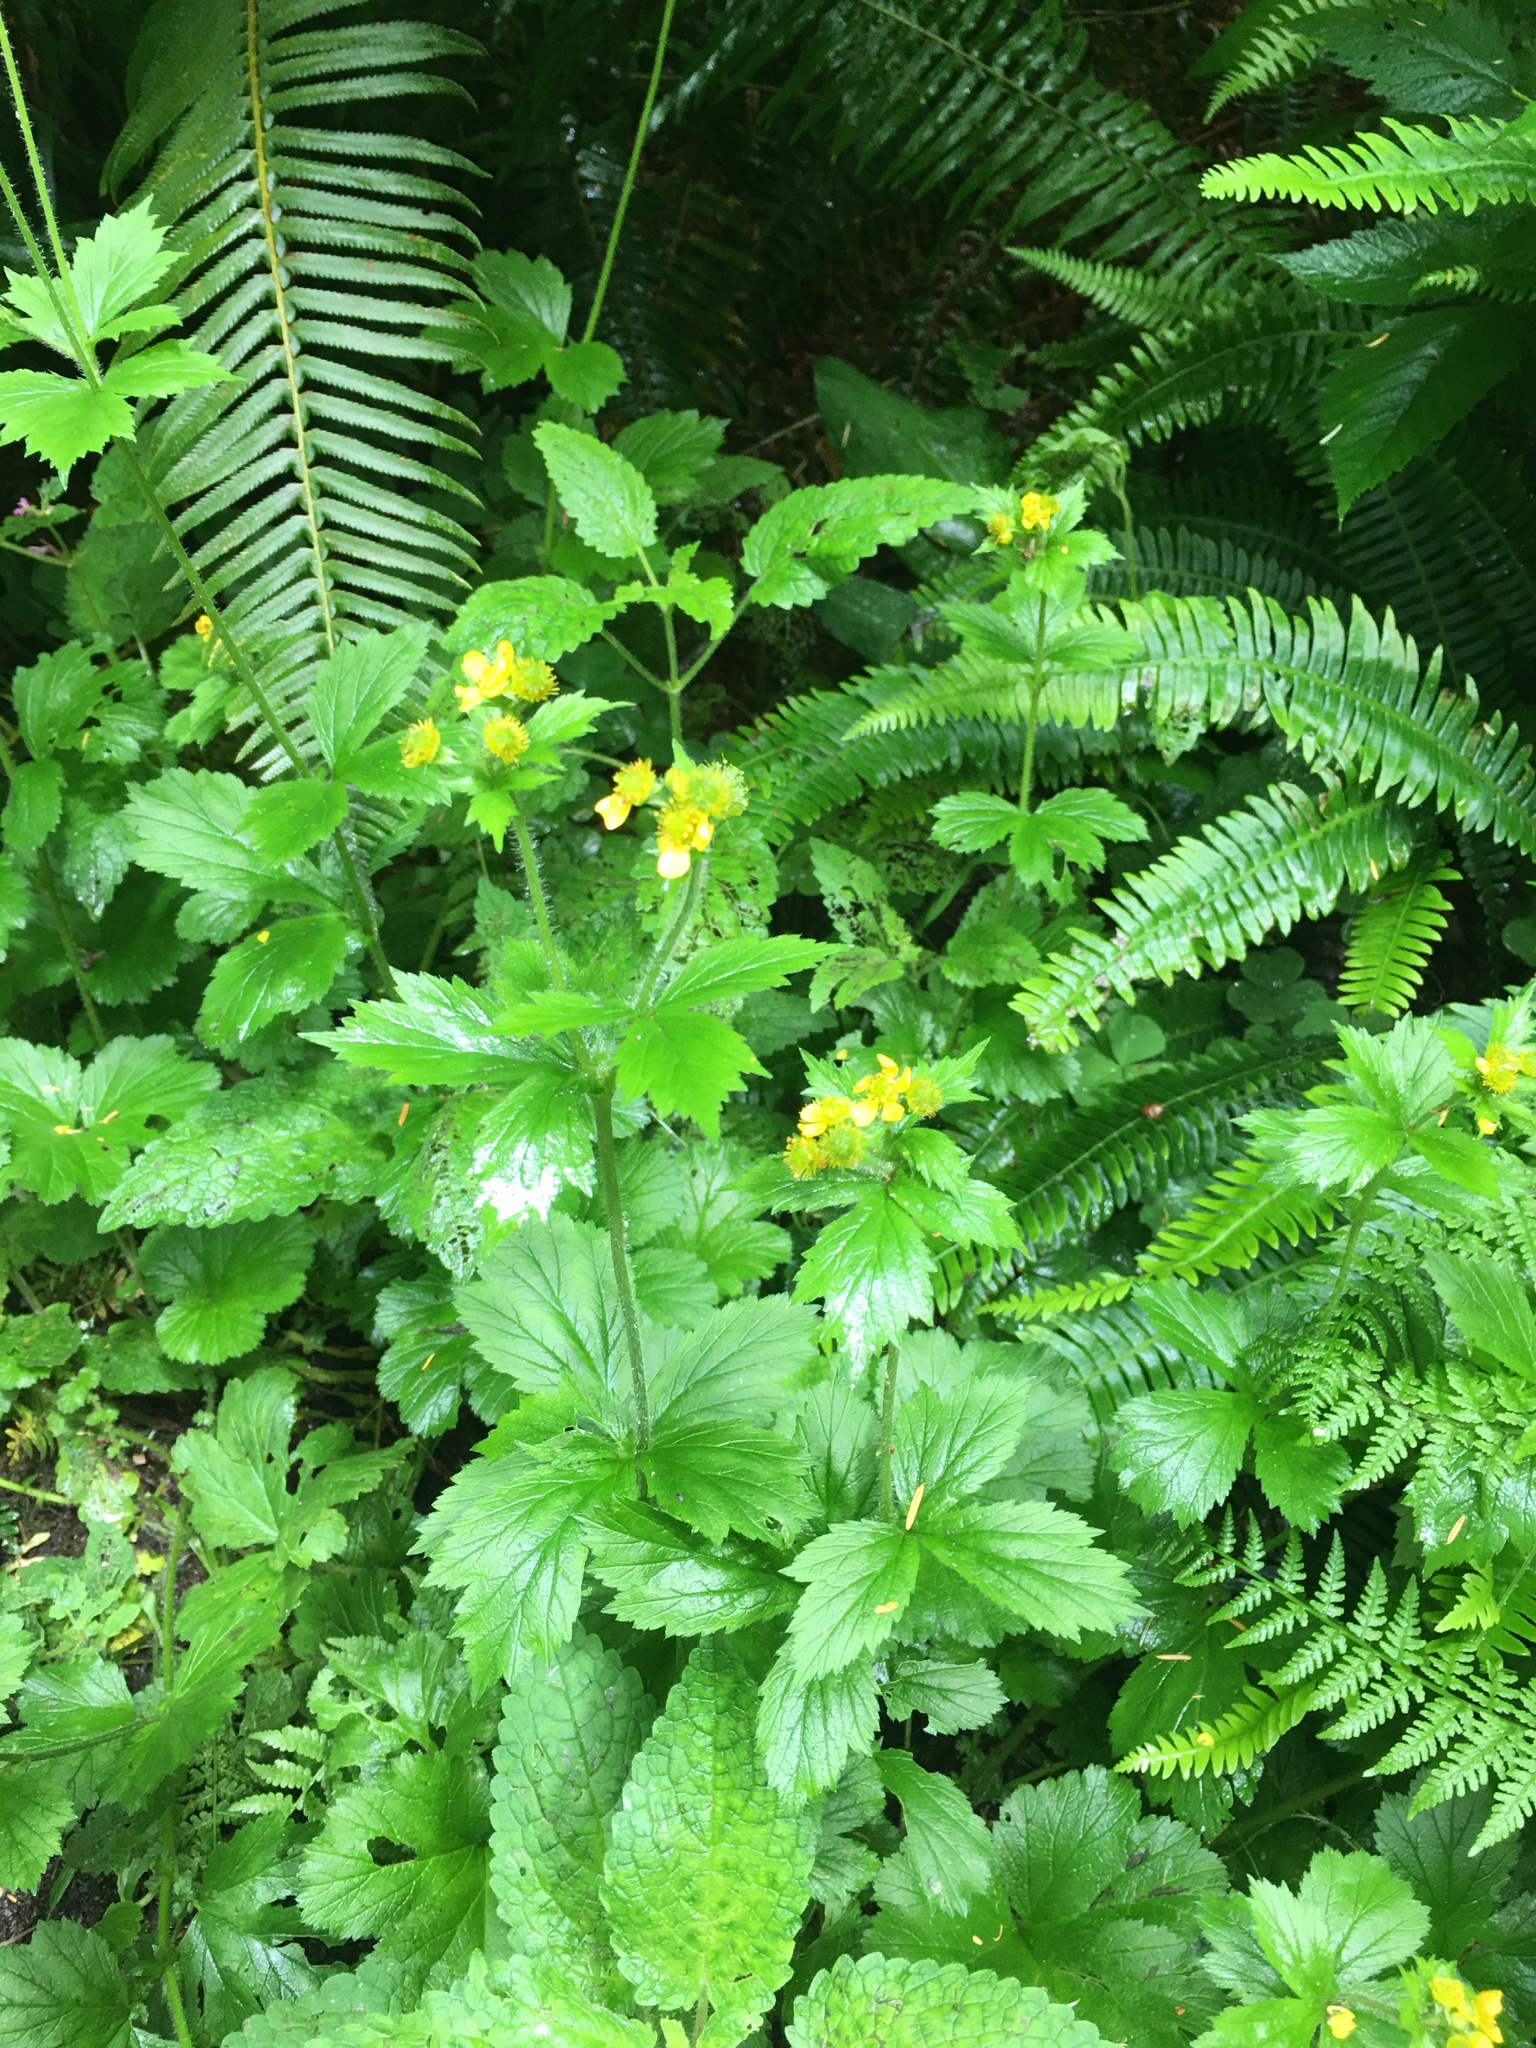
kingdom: Plantae
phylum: Tracheophyta
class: Magnoliopsida
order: Rosales
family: Rosaceae
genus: Geum
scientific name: Geum macrophyllum
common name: Large-leaved avens
